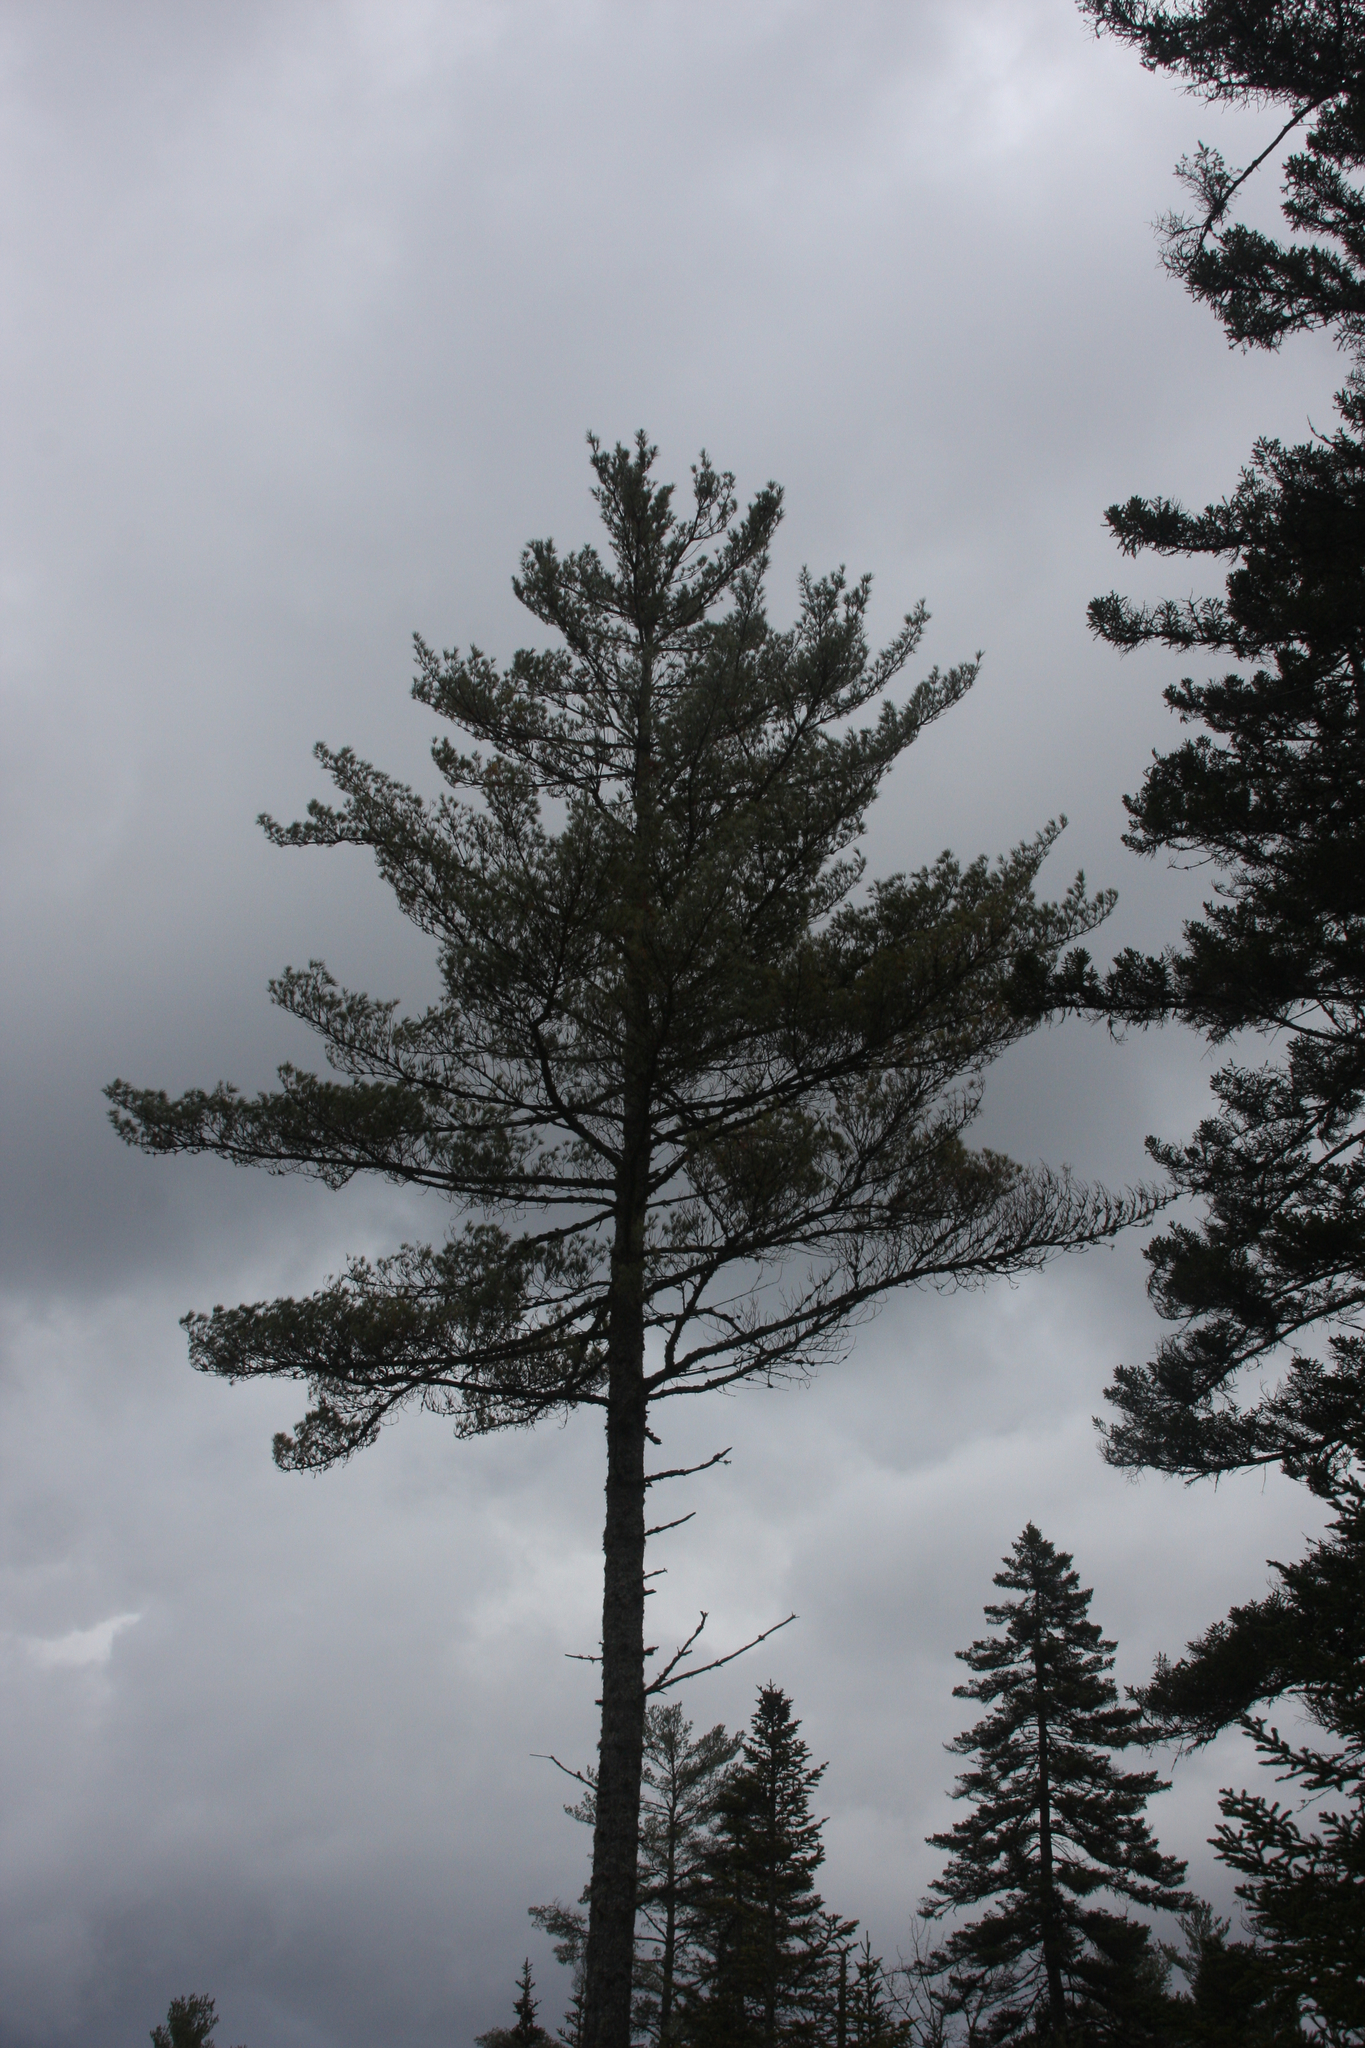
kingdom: Plantae
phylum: Tracheophyta
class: Pinopsida
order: Pinales
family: Pinaceae
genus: Pinus
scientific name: Pinus strobus
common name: Weymouth pine
